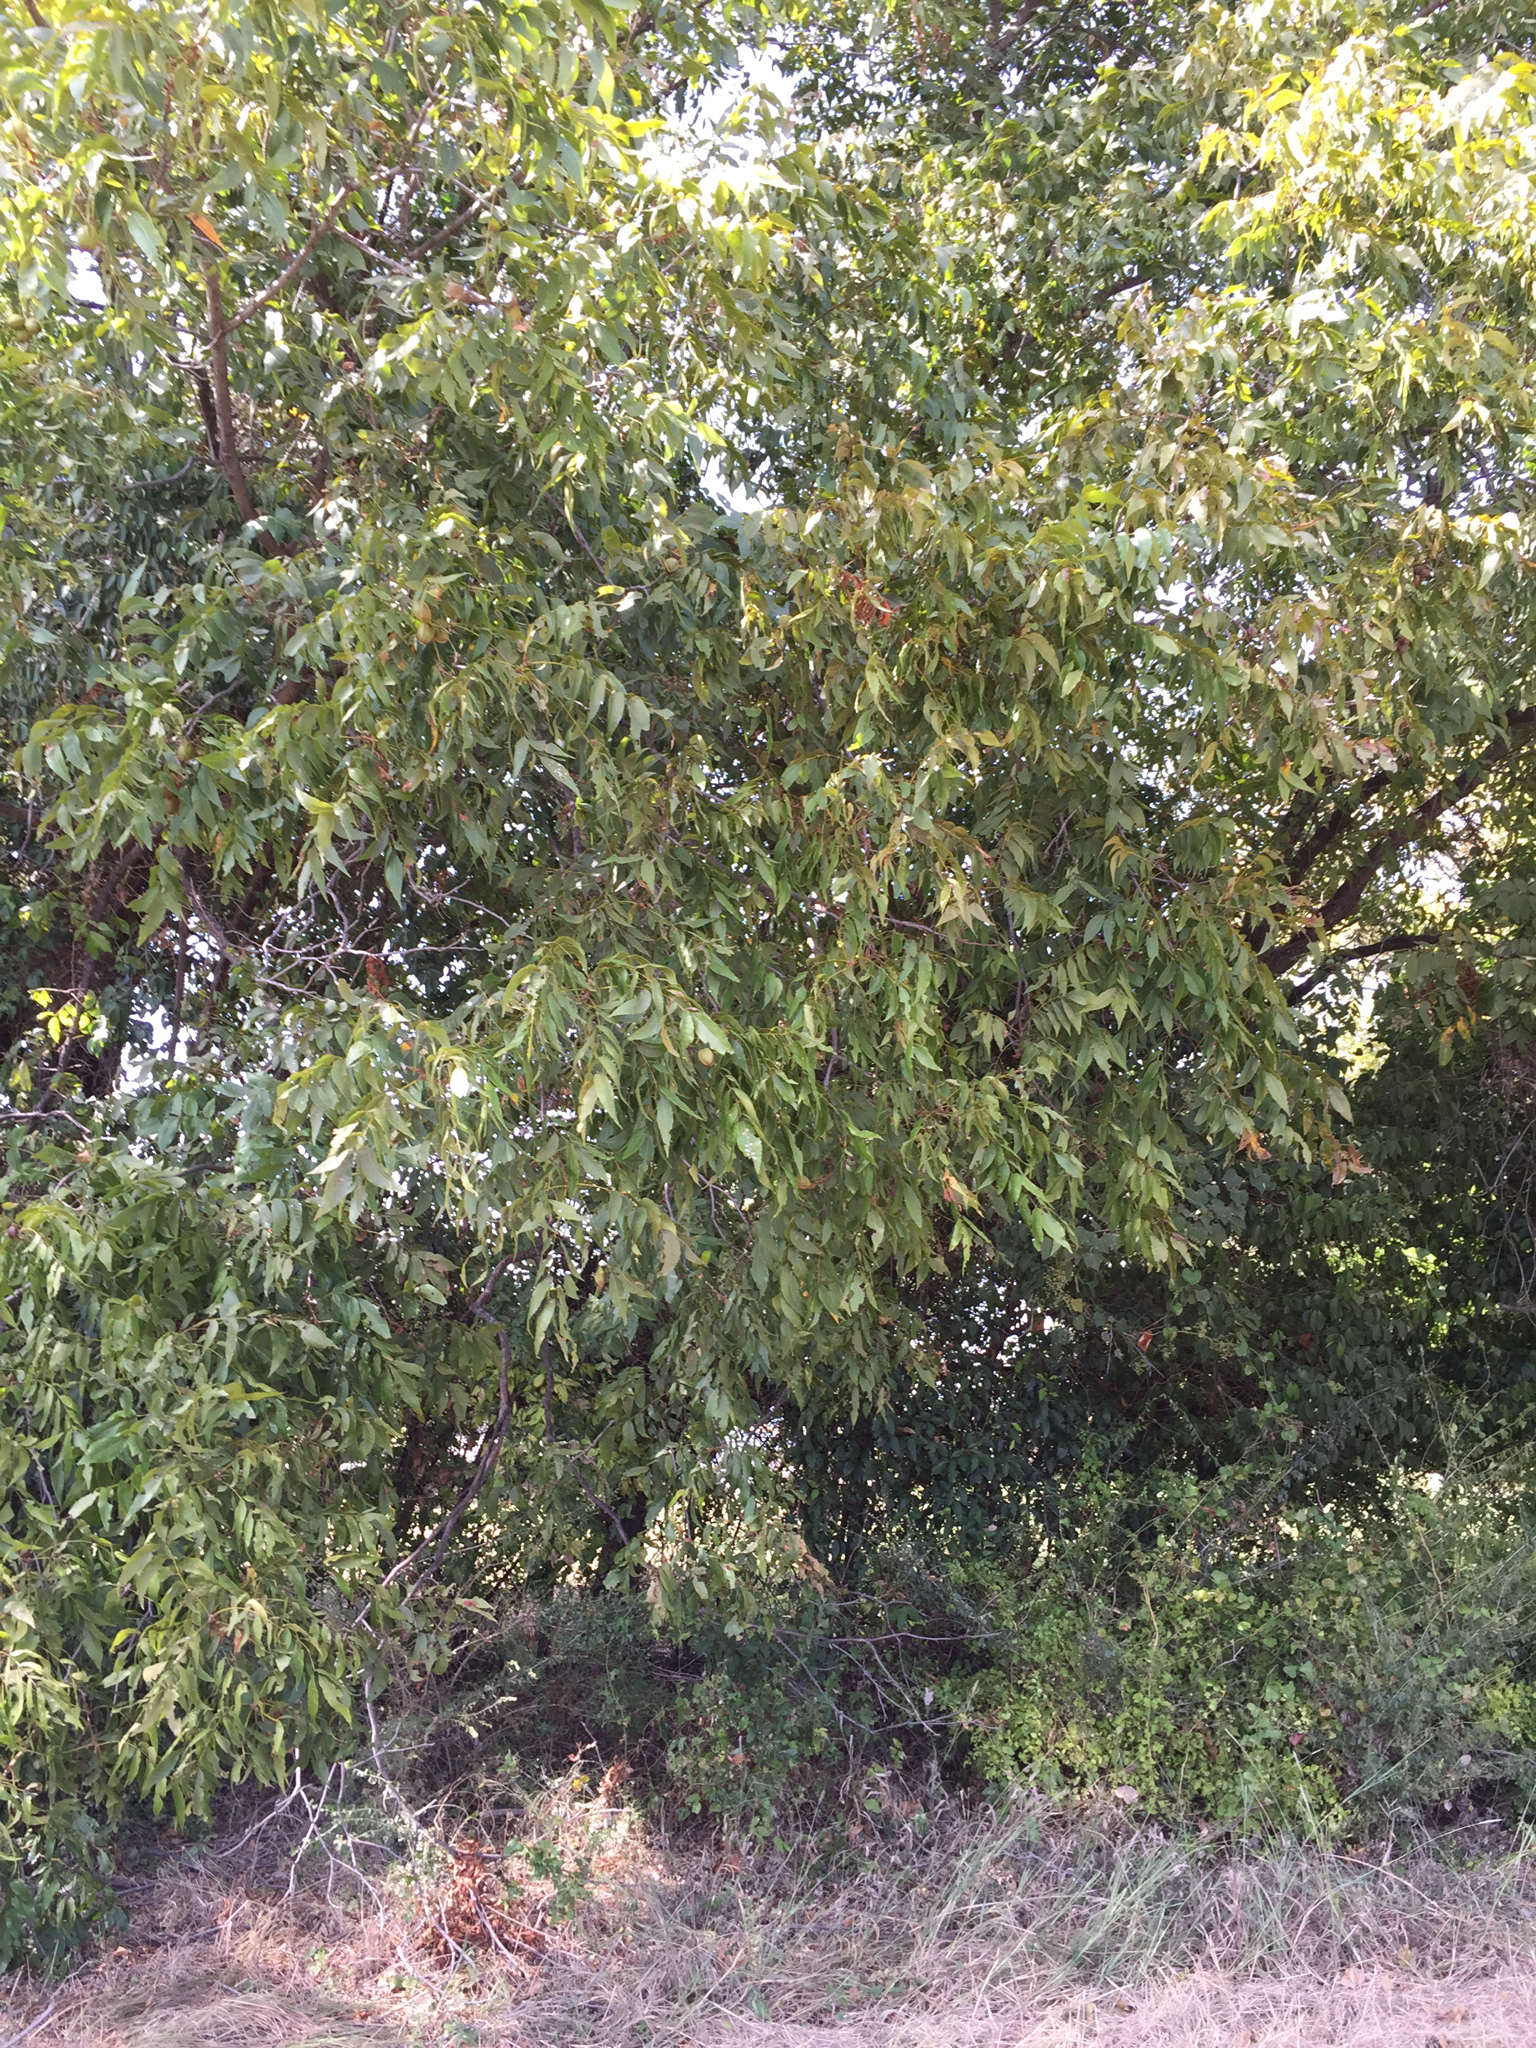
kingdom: Plantae
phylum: Tracheophyta
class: Magnoliopsida
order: Fagales
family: Juglandaceae
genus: Carya
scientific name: Carya illinoinensis
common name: Pecan
